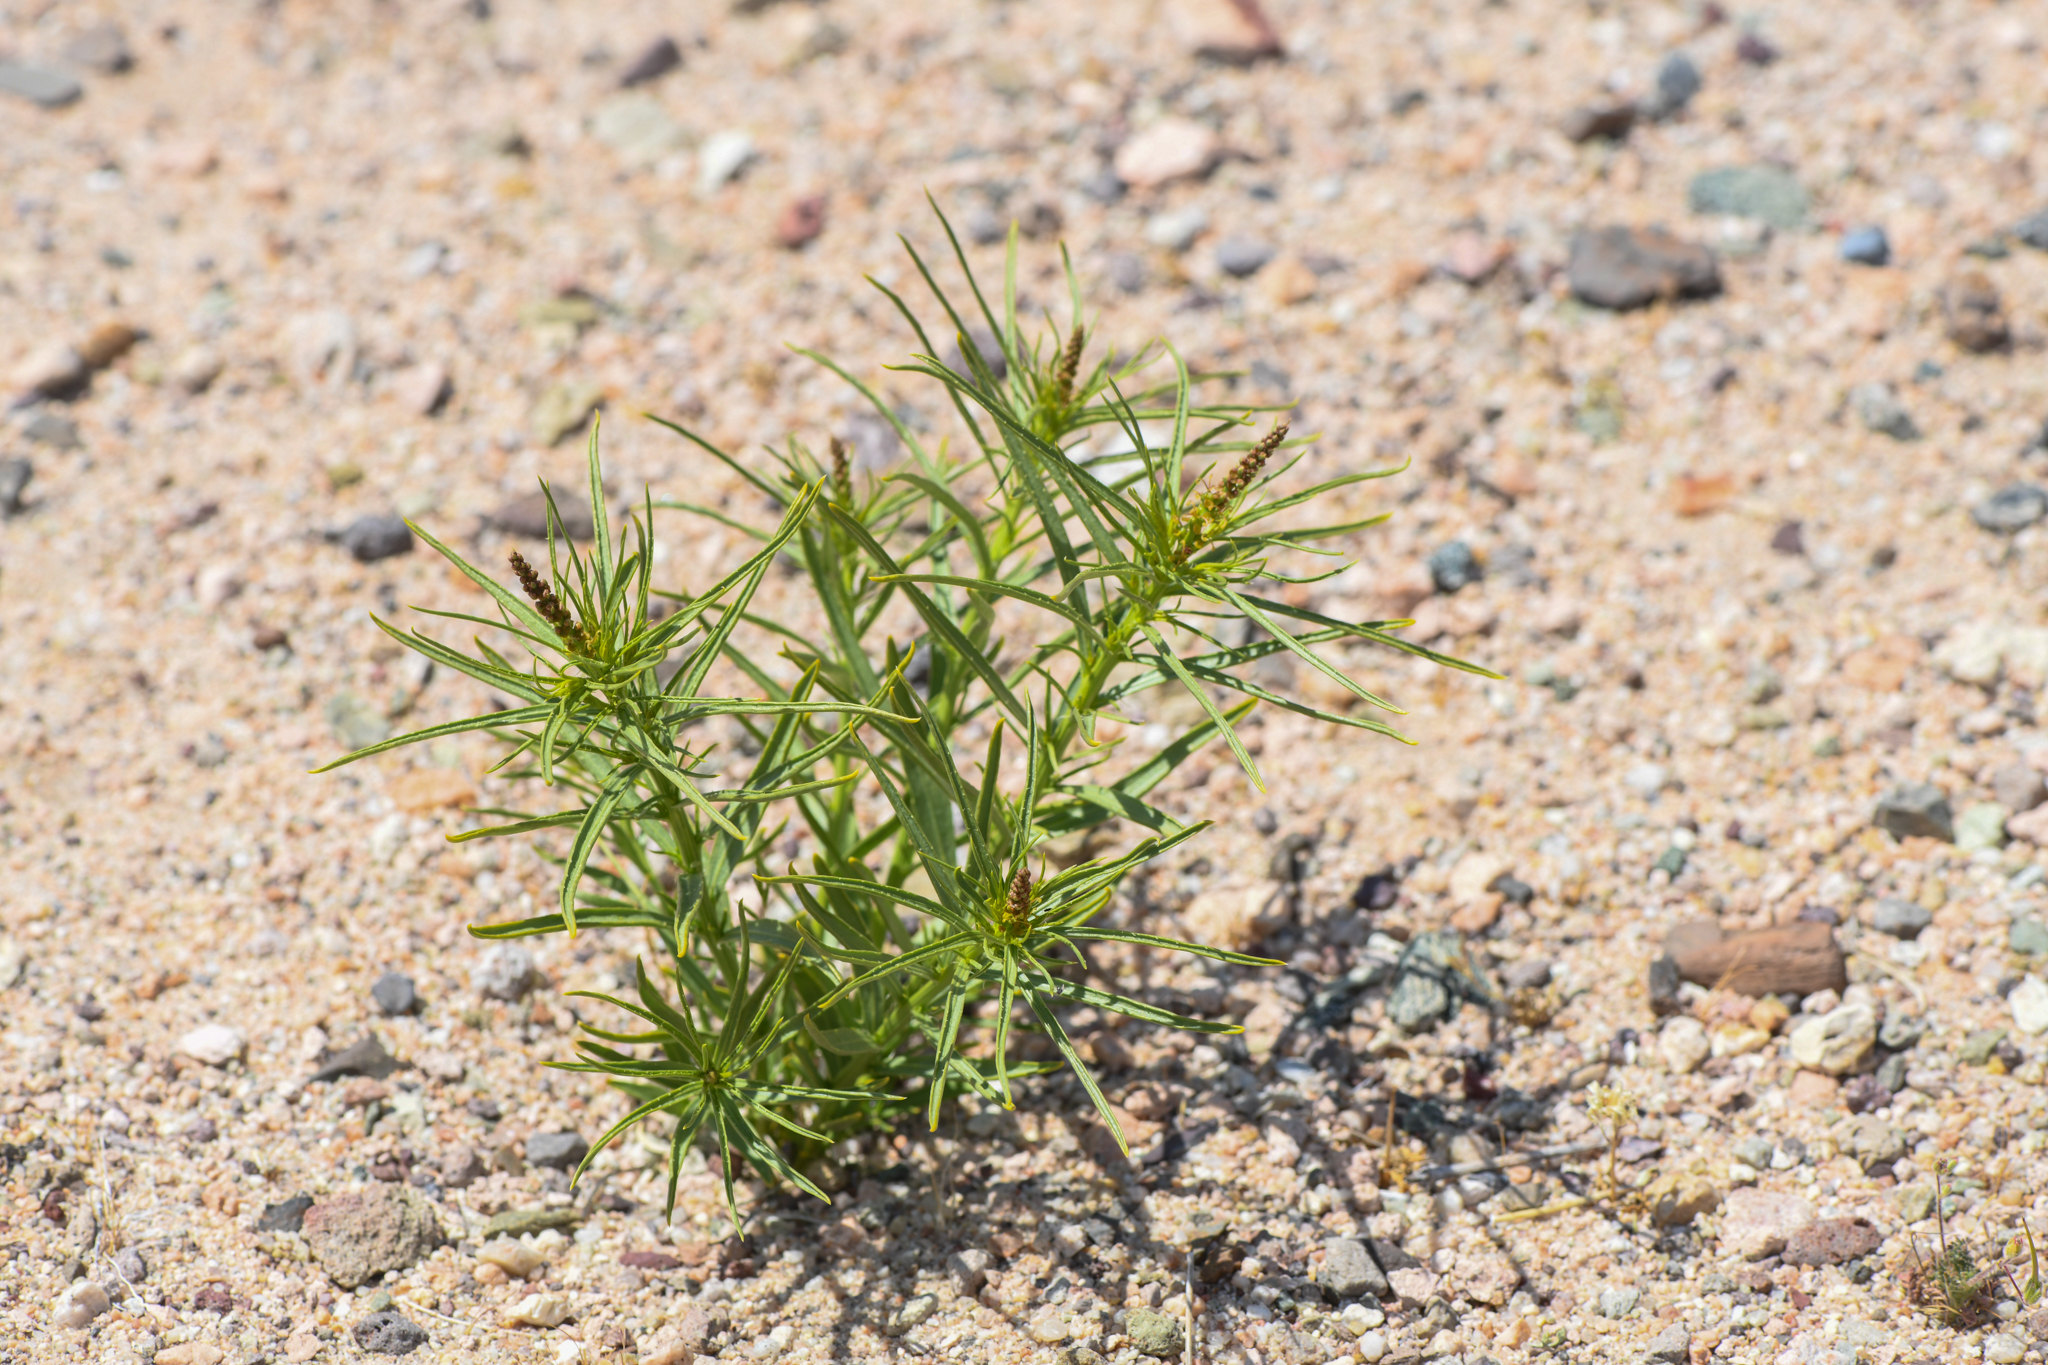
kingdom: Plantae
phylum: Tracheophyta
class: Magnoliopsida
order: Malpighiales
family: Euphorbiaceae
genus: Stillingia
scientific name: Stillingia paucidentata
